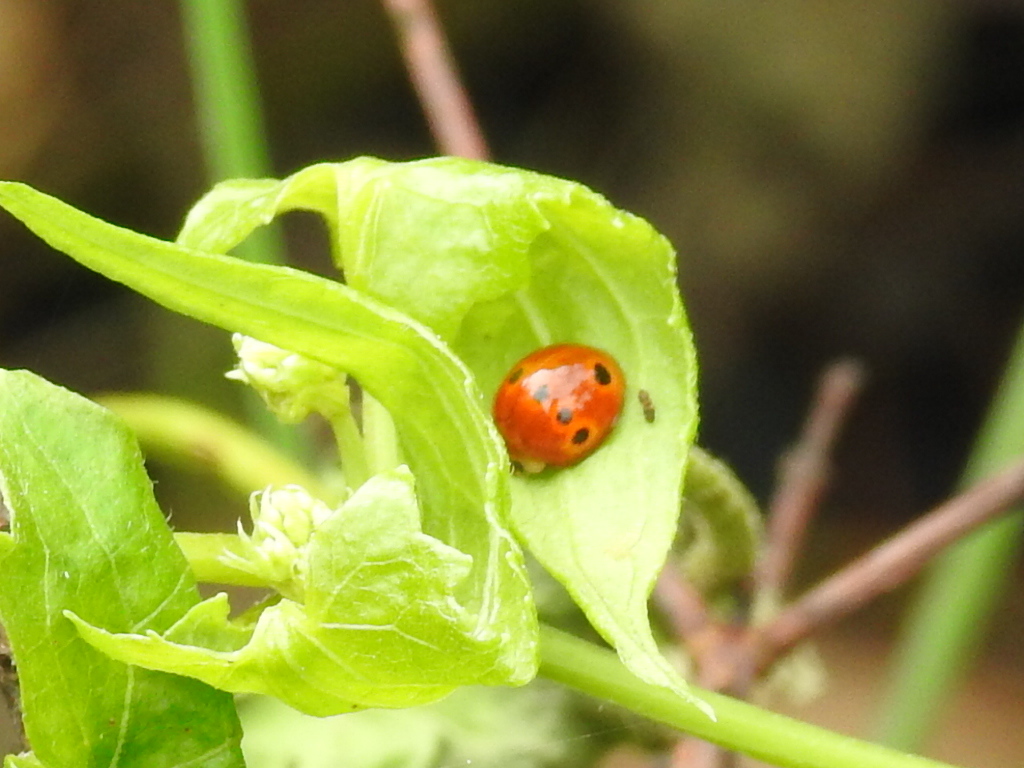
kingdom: Animalia
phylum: Arthropoda
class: Insecta
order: Coleoptera
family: Coccinellidae
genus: Coelophora
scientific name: Coelophora bowringii
